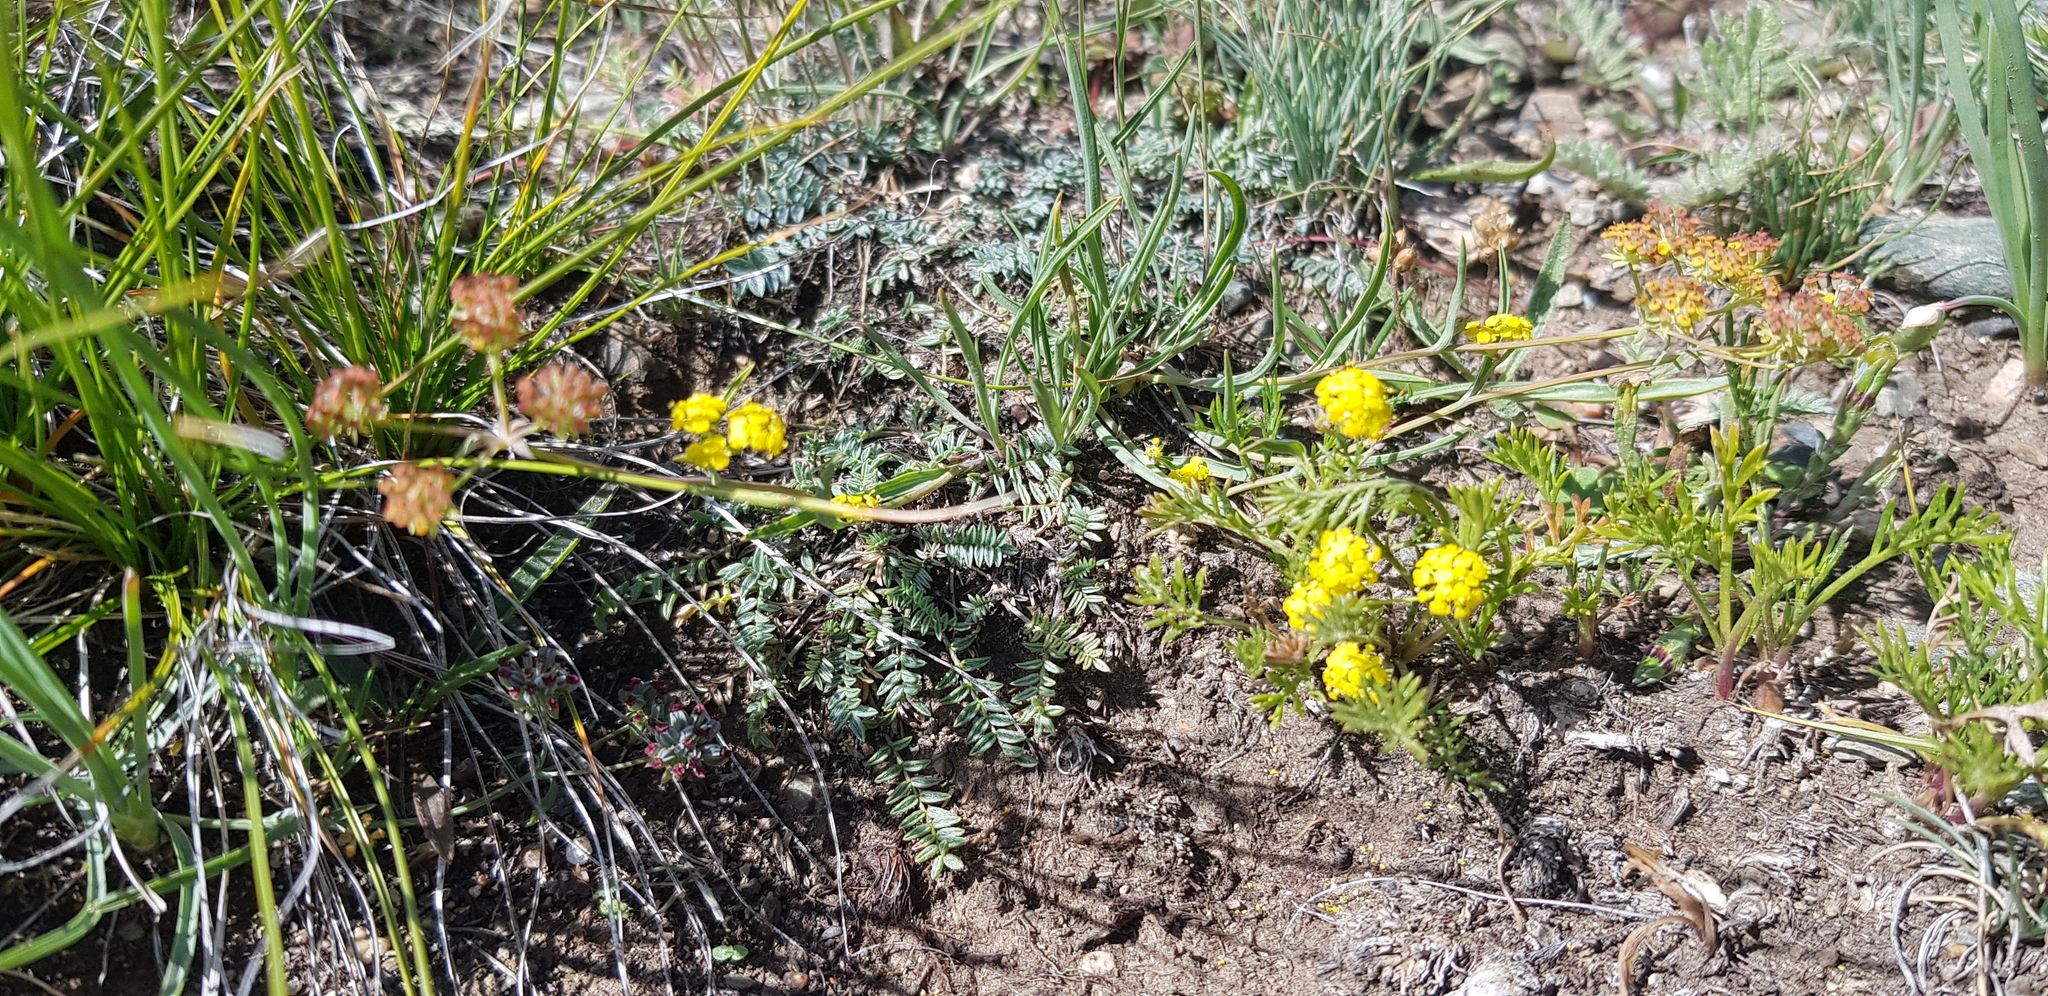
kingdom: Plantae
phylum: Tracheophyta
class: Magnoliopsida
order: Apiales
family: Apiaceae
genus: Bupleurum
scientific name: Bupleurum bicaule
